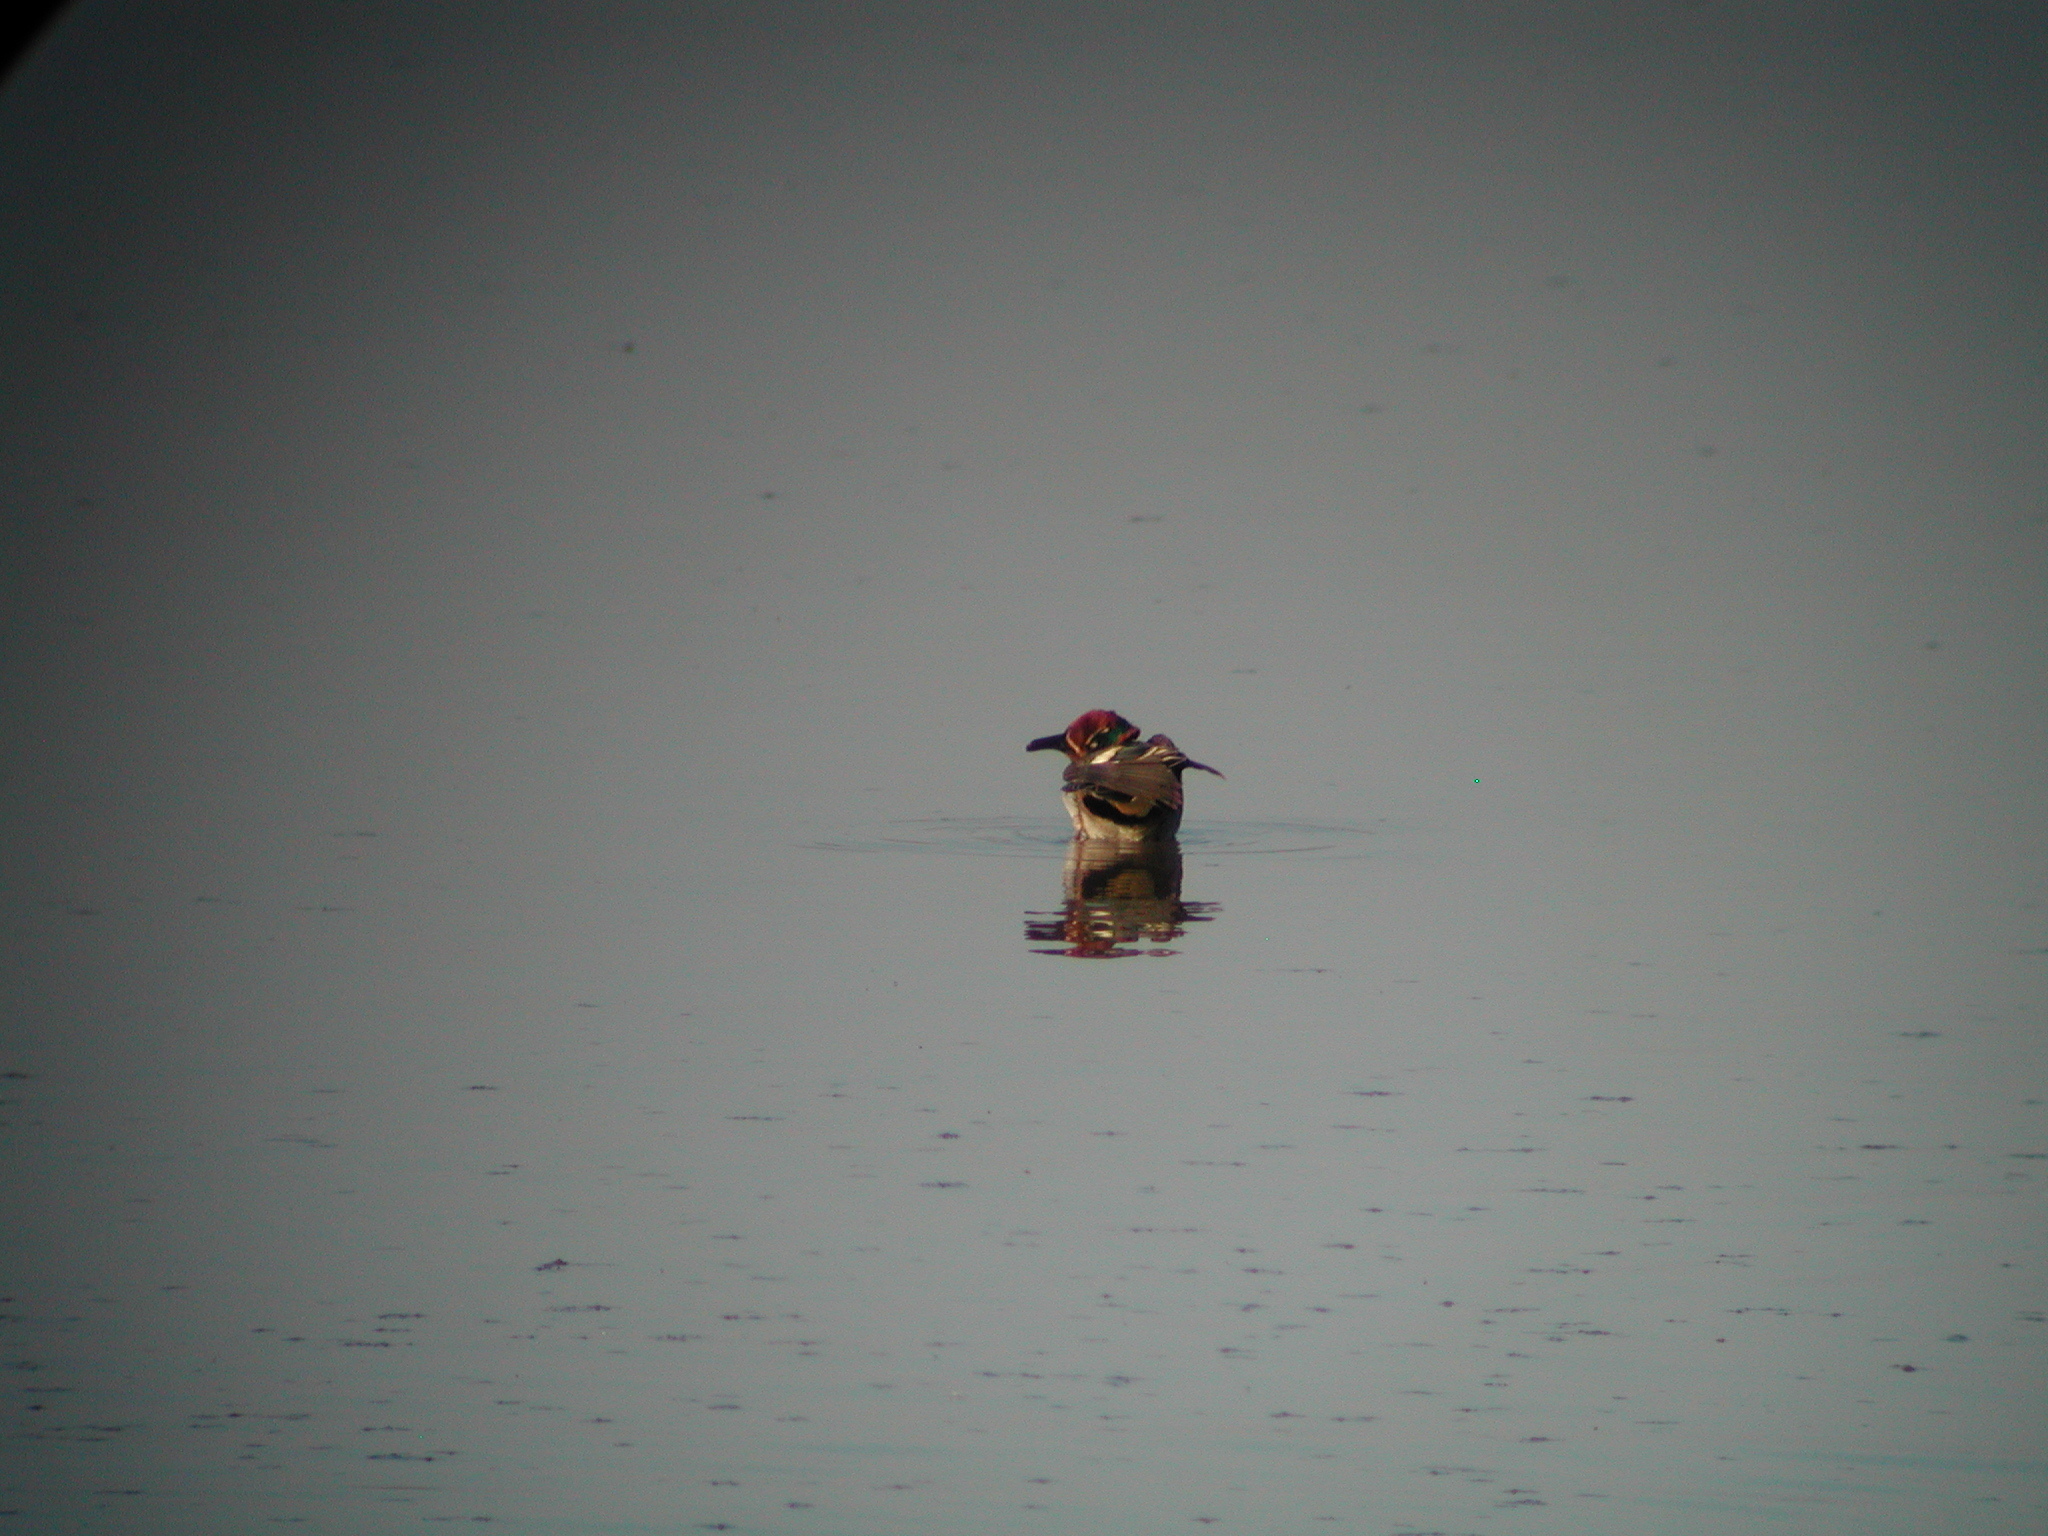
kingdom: Animalia
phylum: Chordata
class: Aves
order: Anseriformes
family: Anatidae
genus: Anas
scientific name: Anas crecca
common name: Eurasian teal
